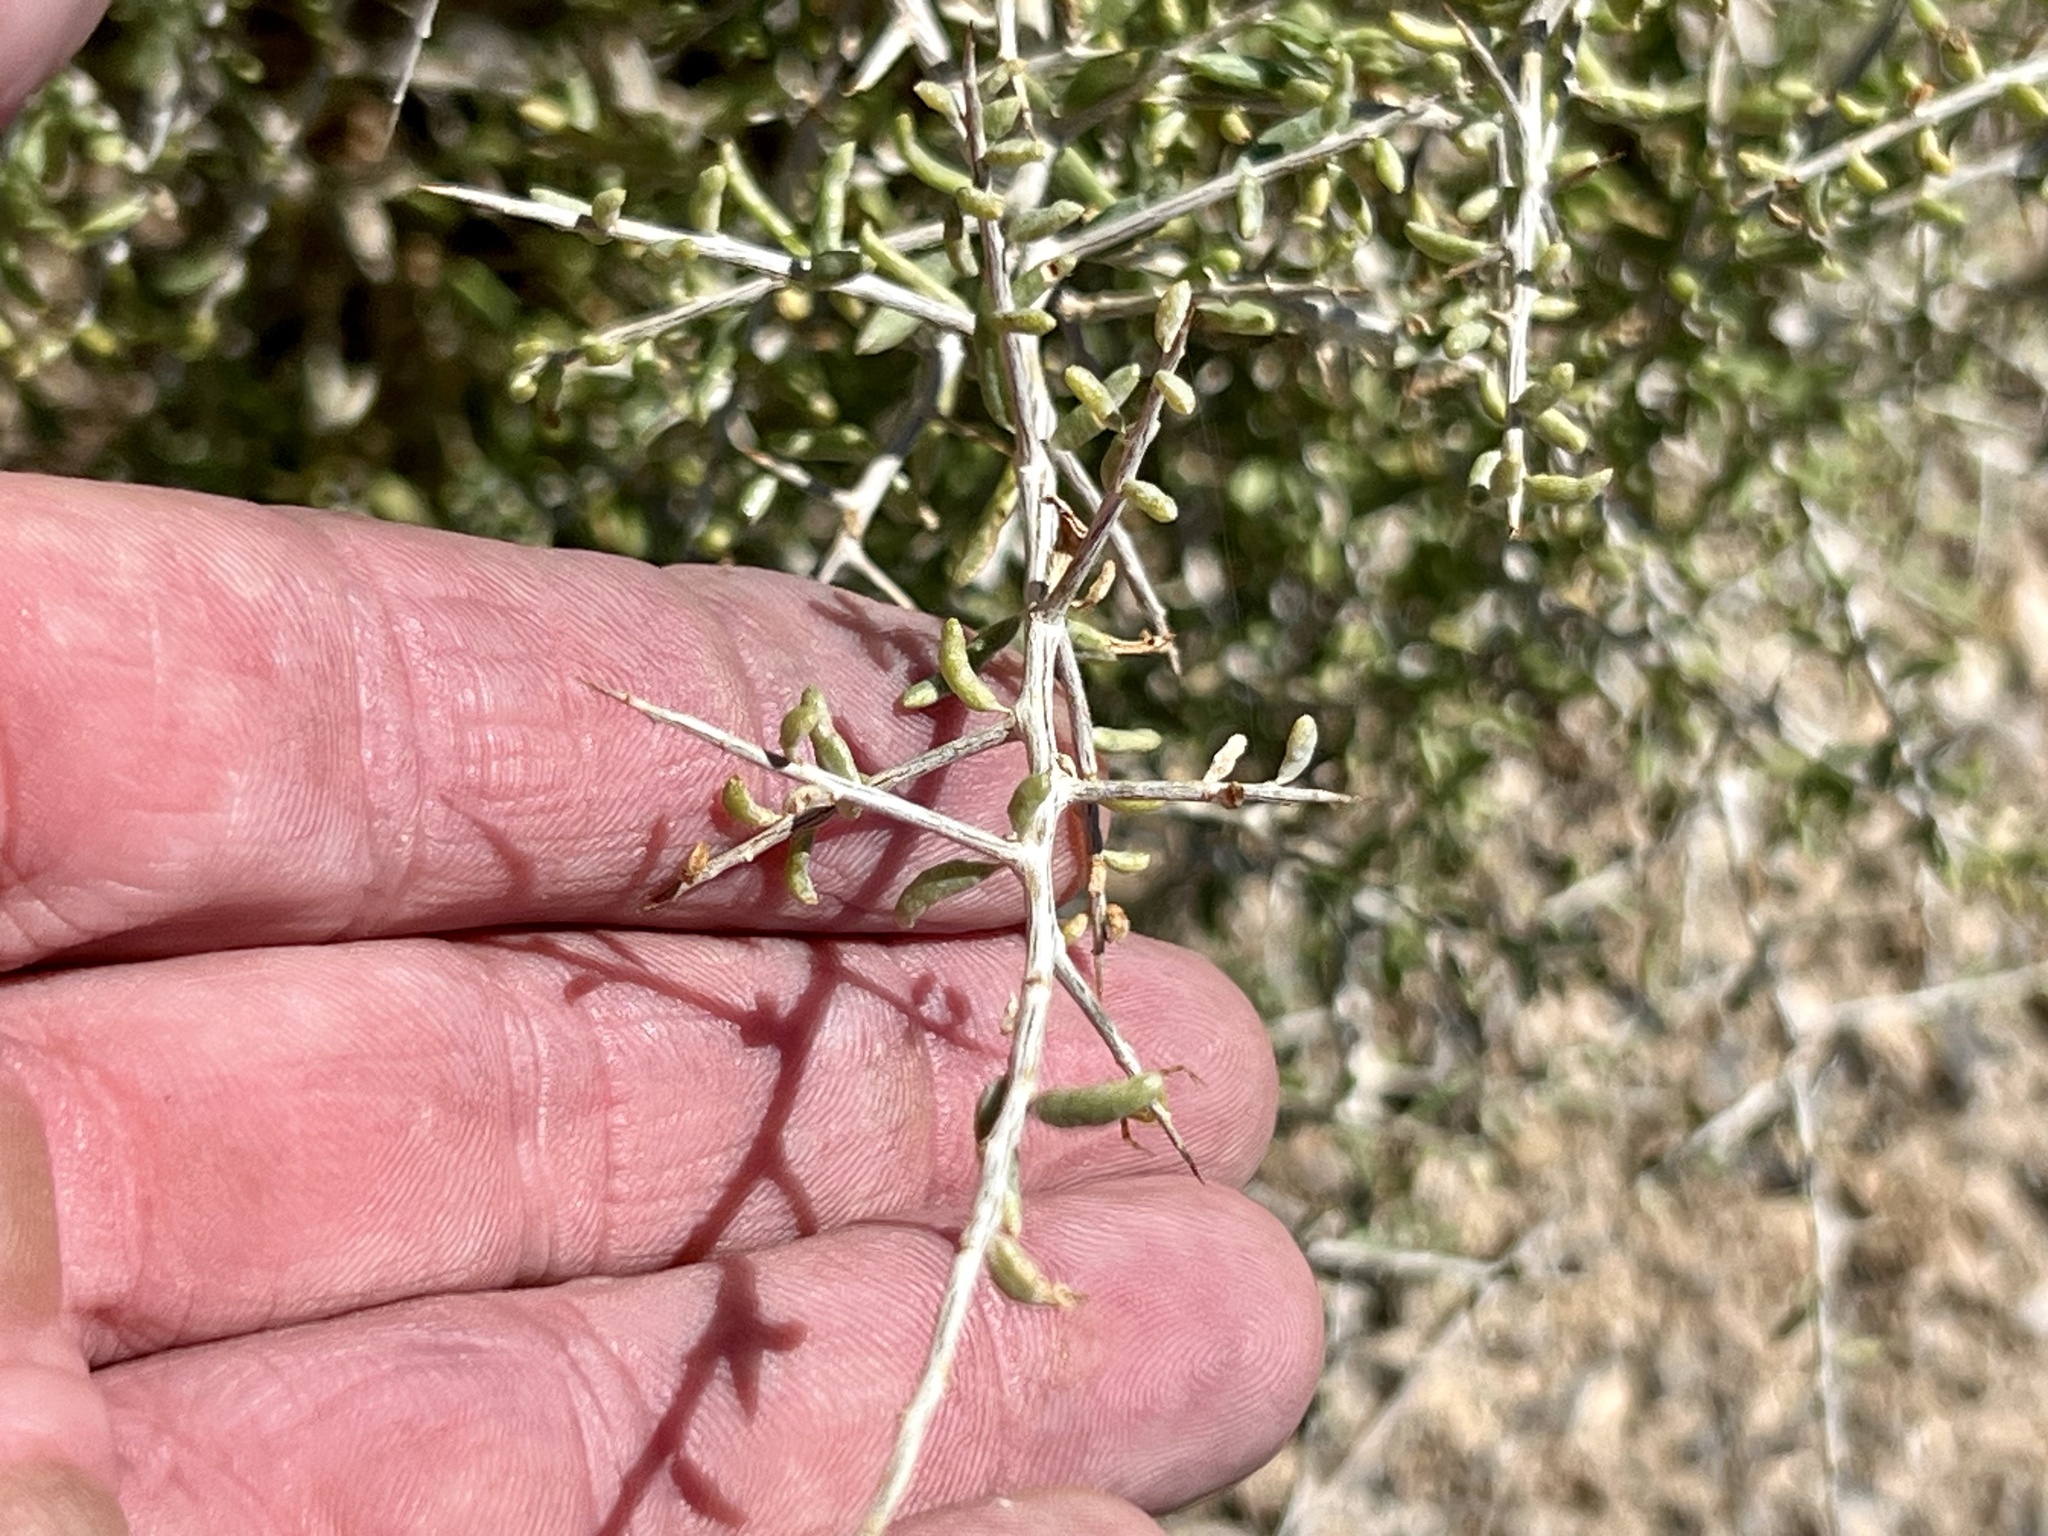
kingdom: Plantae
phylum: Tracheophyta
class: Magnoliopsida
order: Solanales
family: Solanaceae
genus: Lycium
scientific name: Lycium andersonii
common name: Water-jacket
